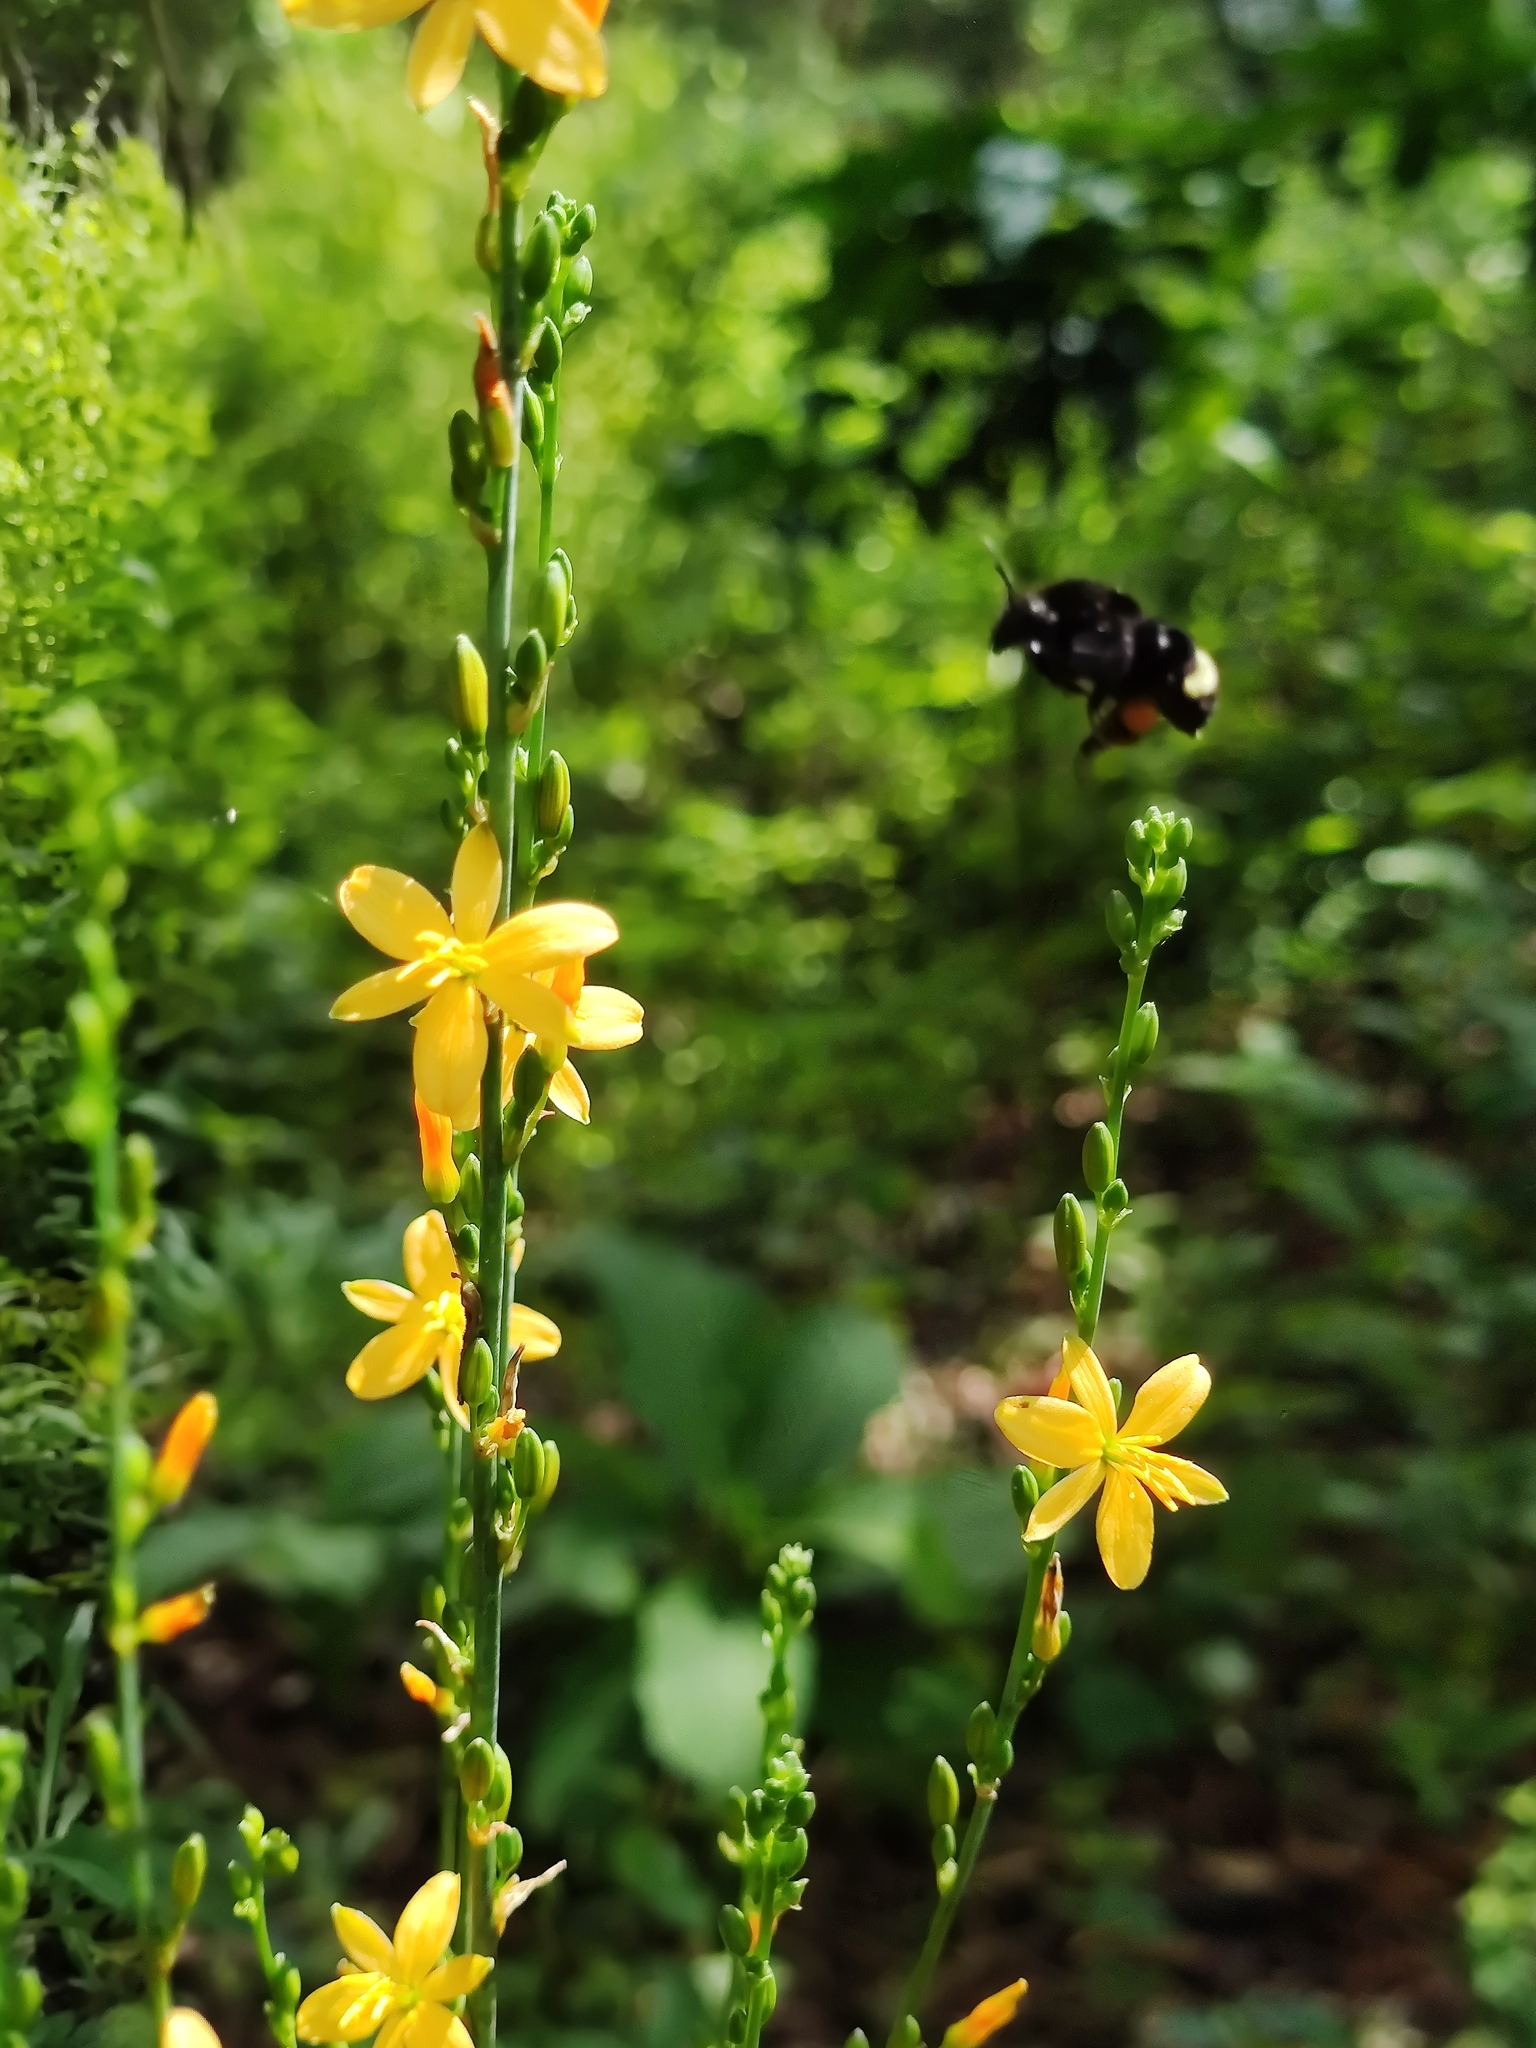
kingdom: Animalia
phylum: Arthropoda
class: Insecta
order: Hymenoptera
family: Apidae
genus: Bombus
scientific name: Bombus mexicanus
